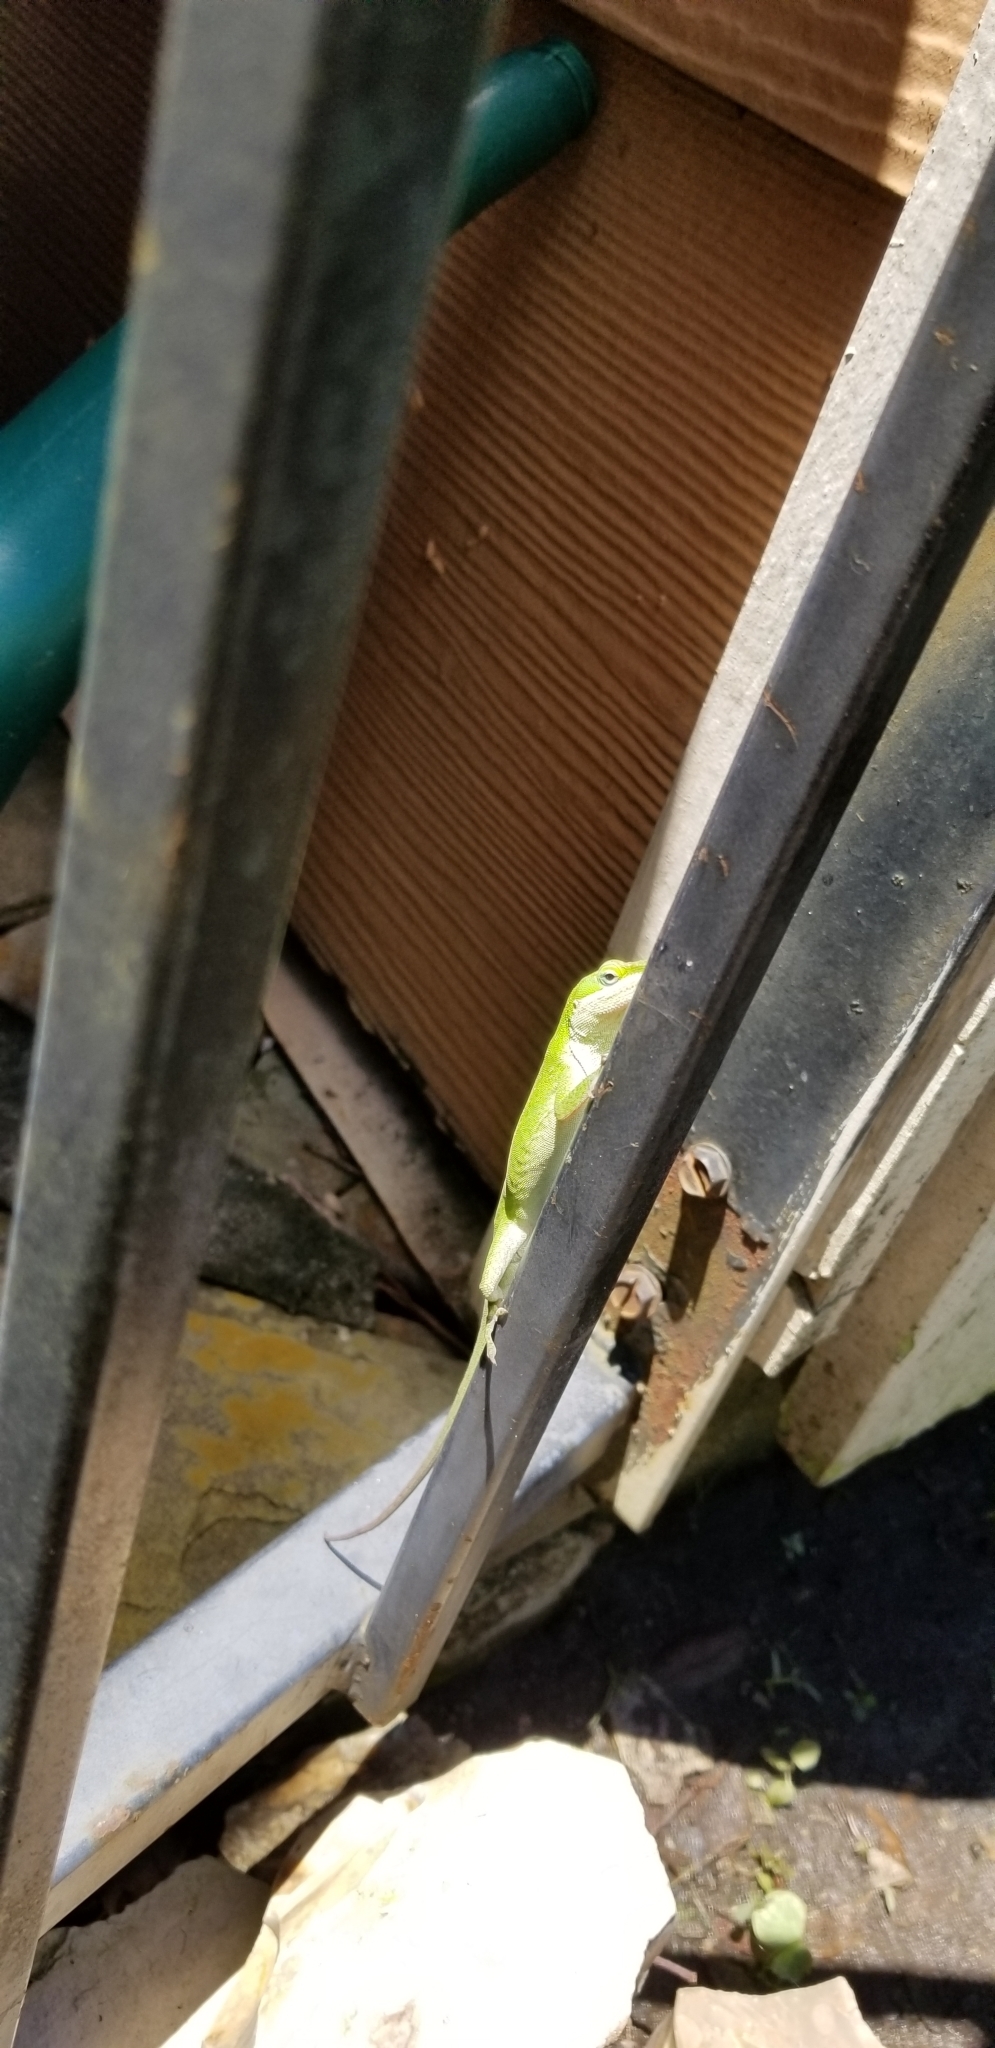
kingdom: Animalia
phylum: Chordata
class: Squamata
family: Dactyloidae
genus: Anolis
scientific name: Anolis carolinensis
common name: Green anole
